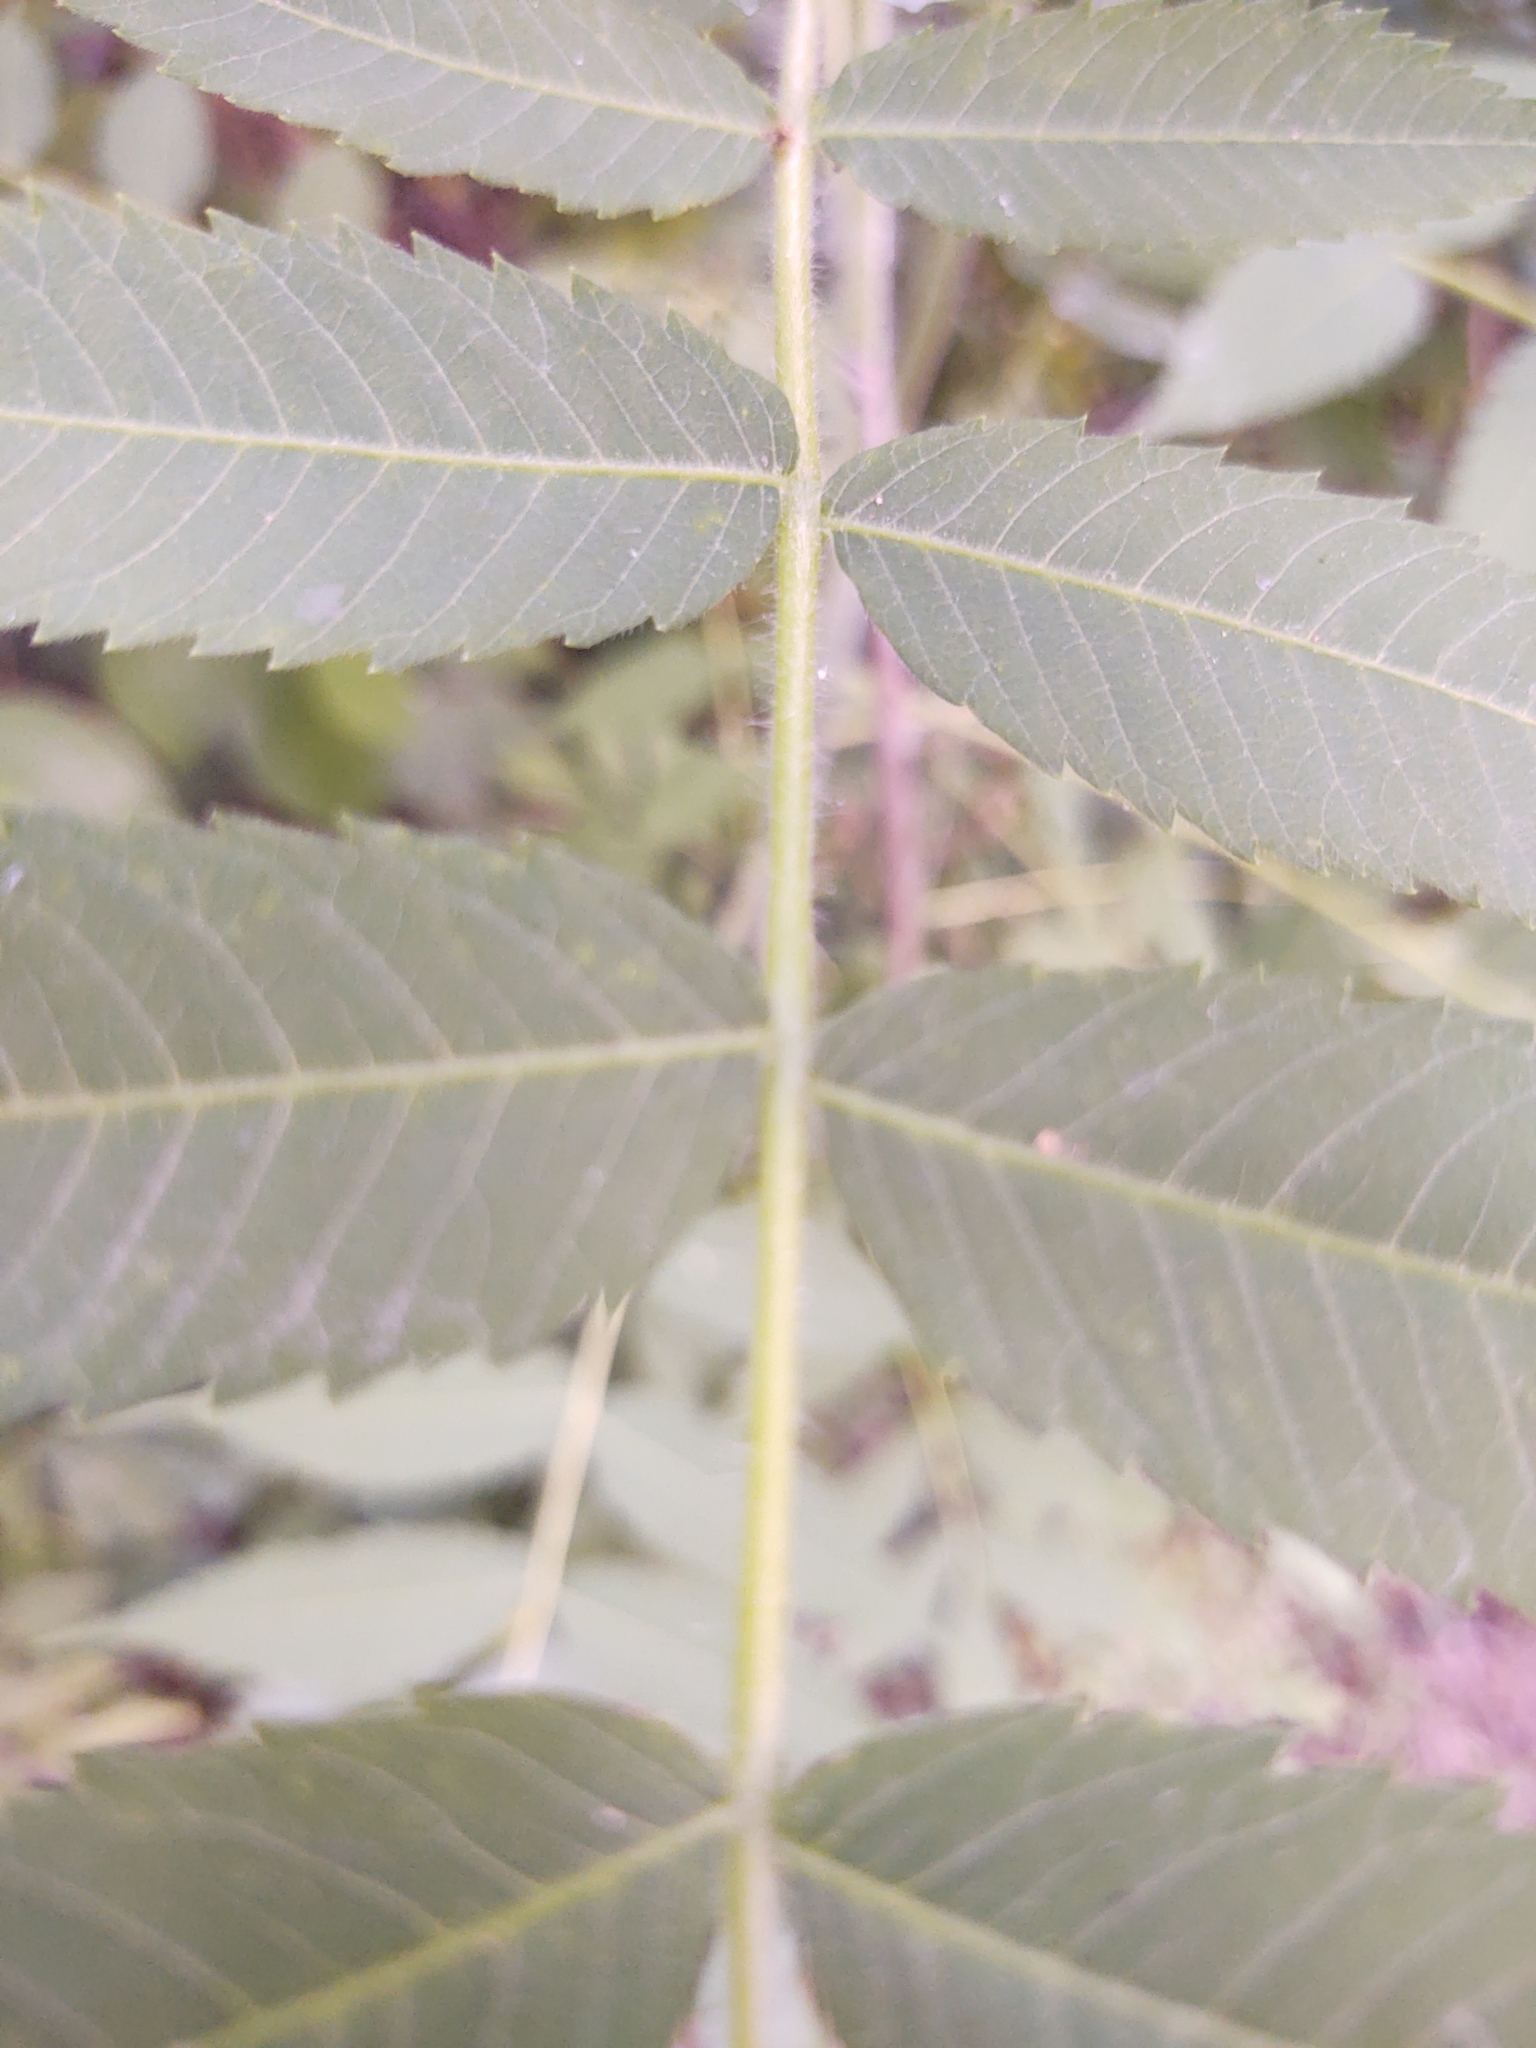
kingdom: Plantae
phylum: Tracheophyta
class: Magnoliopsida
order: Sapindales
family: Anacardiaceae
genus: Rhus
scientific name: Rhus typhina
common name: Staghorn sumac
